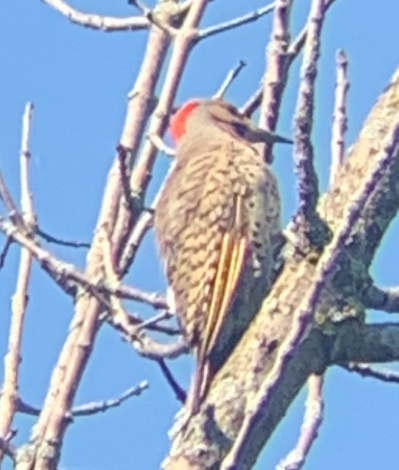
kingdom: Animalia
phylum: Chordata
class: Aves
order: Piciformes
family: Picidae
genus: Colaptes
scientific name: Colaptes auratus
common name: Northern flicker
